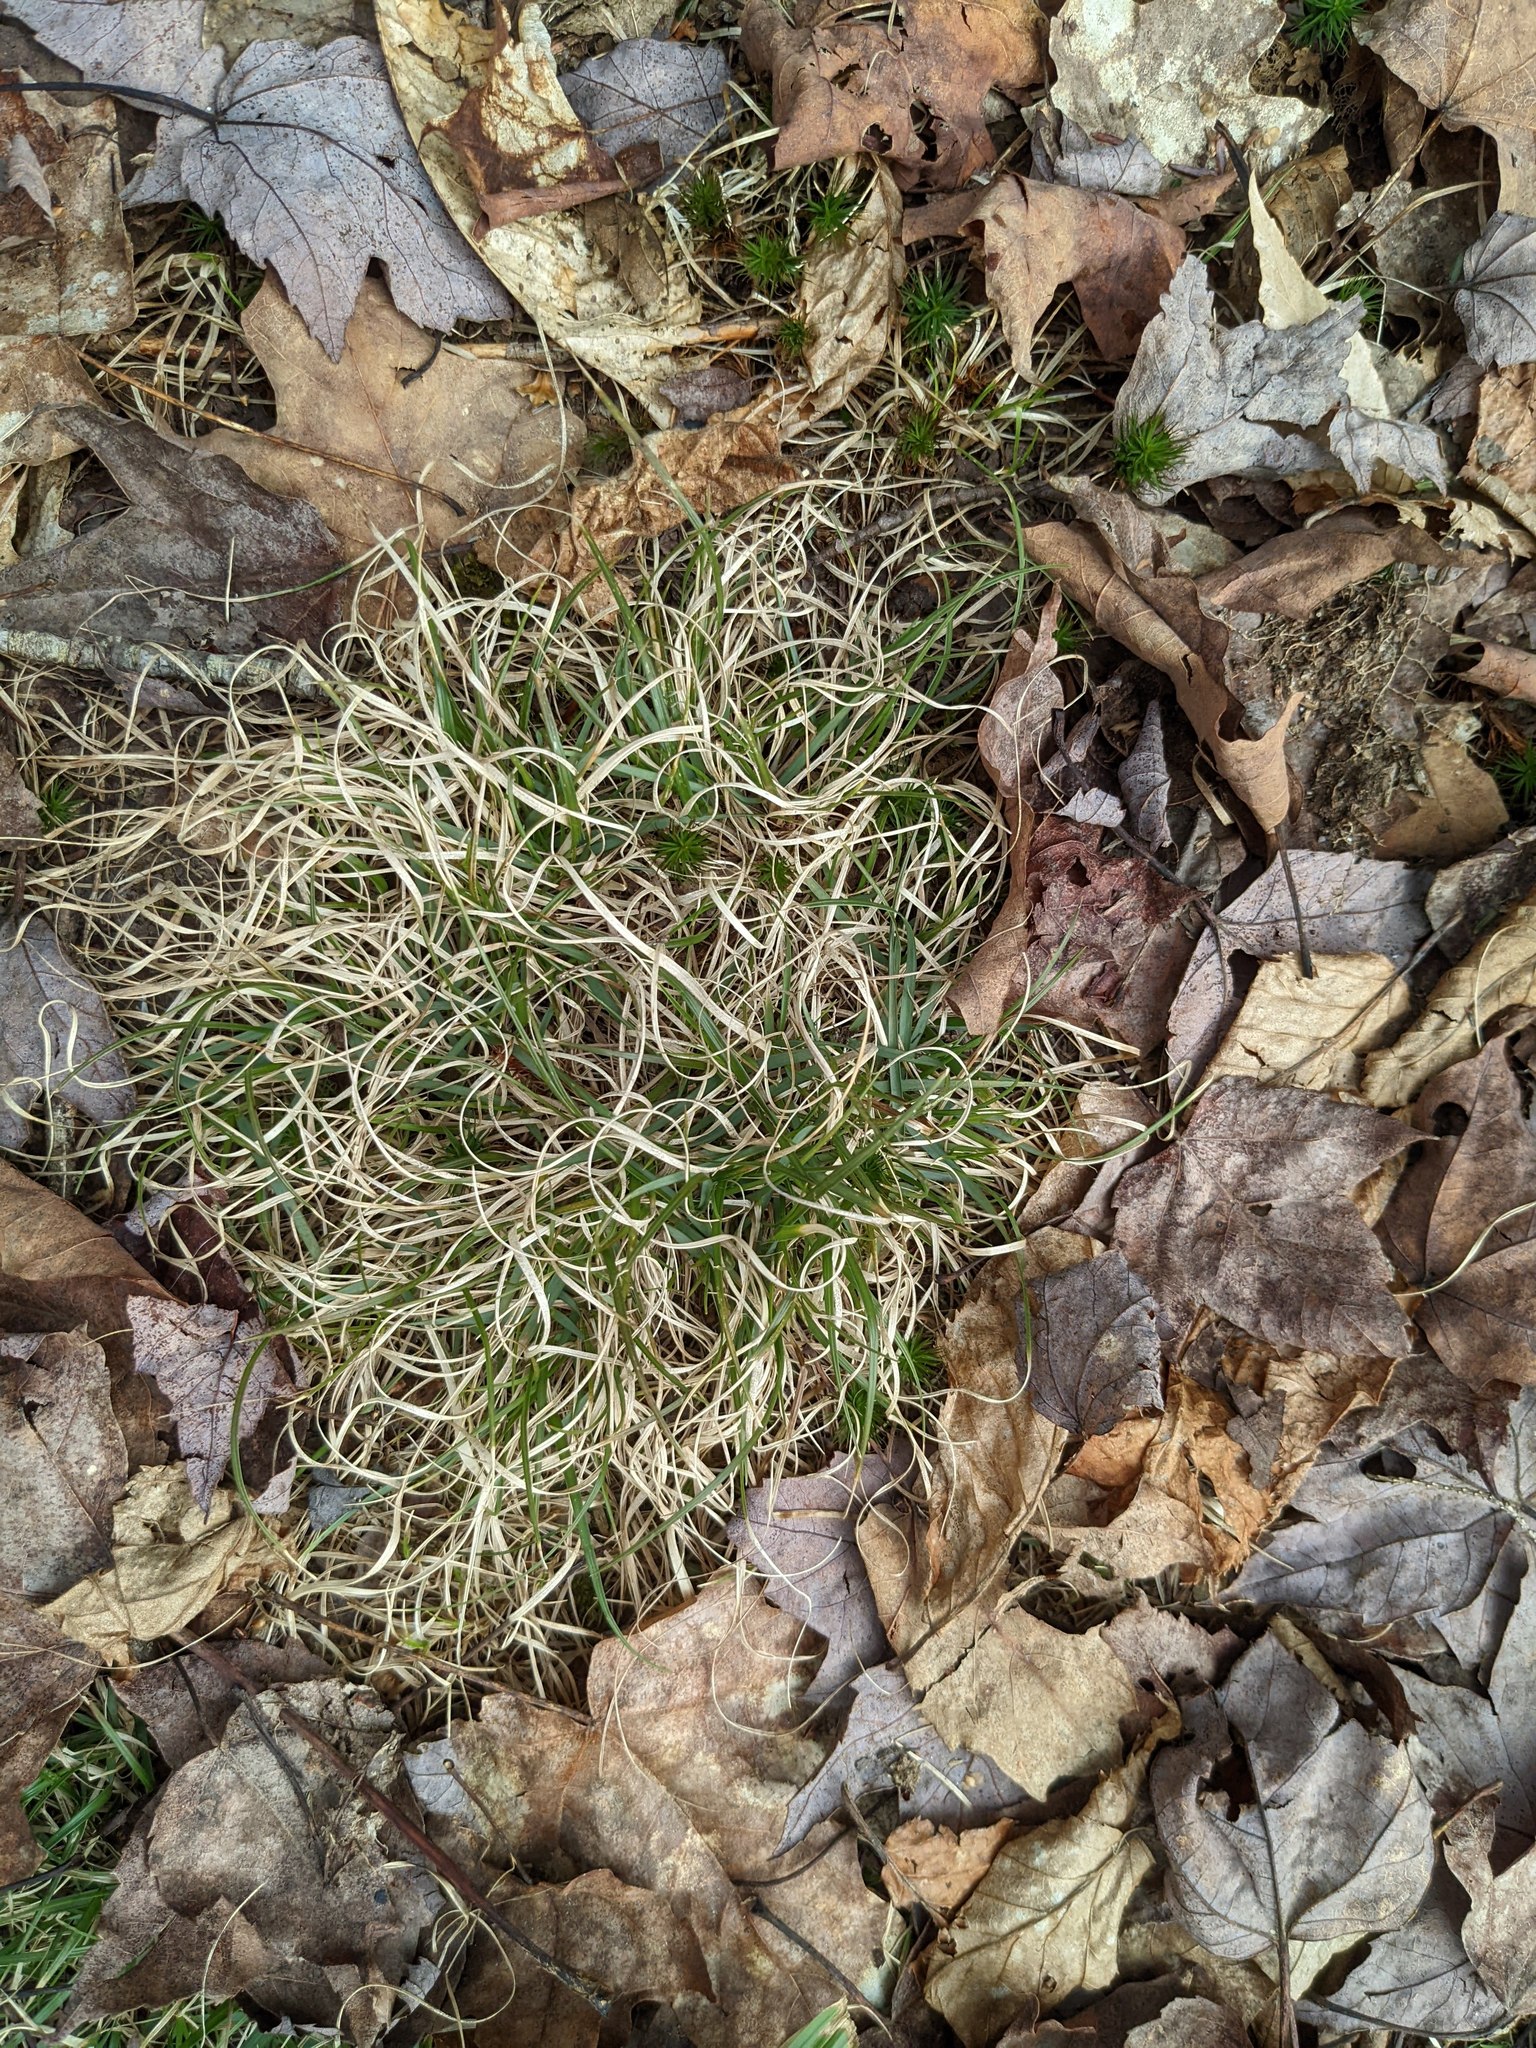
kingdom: Plantae
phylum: Tracheophyta
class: Liliopsida
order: Poales
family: Poaceae
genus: Danthonia
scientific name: Danthonia spicata
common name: Common wild oatgrass
